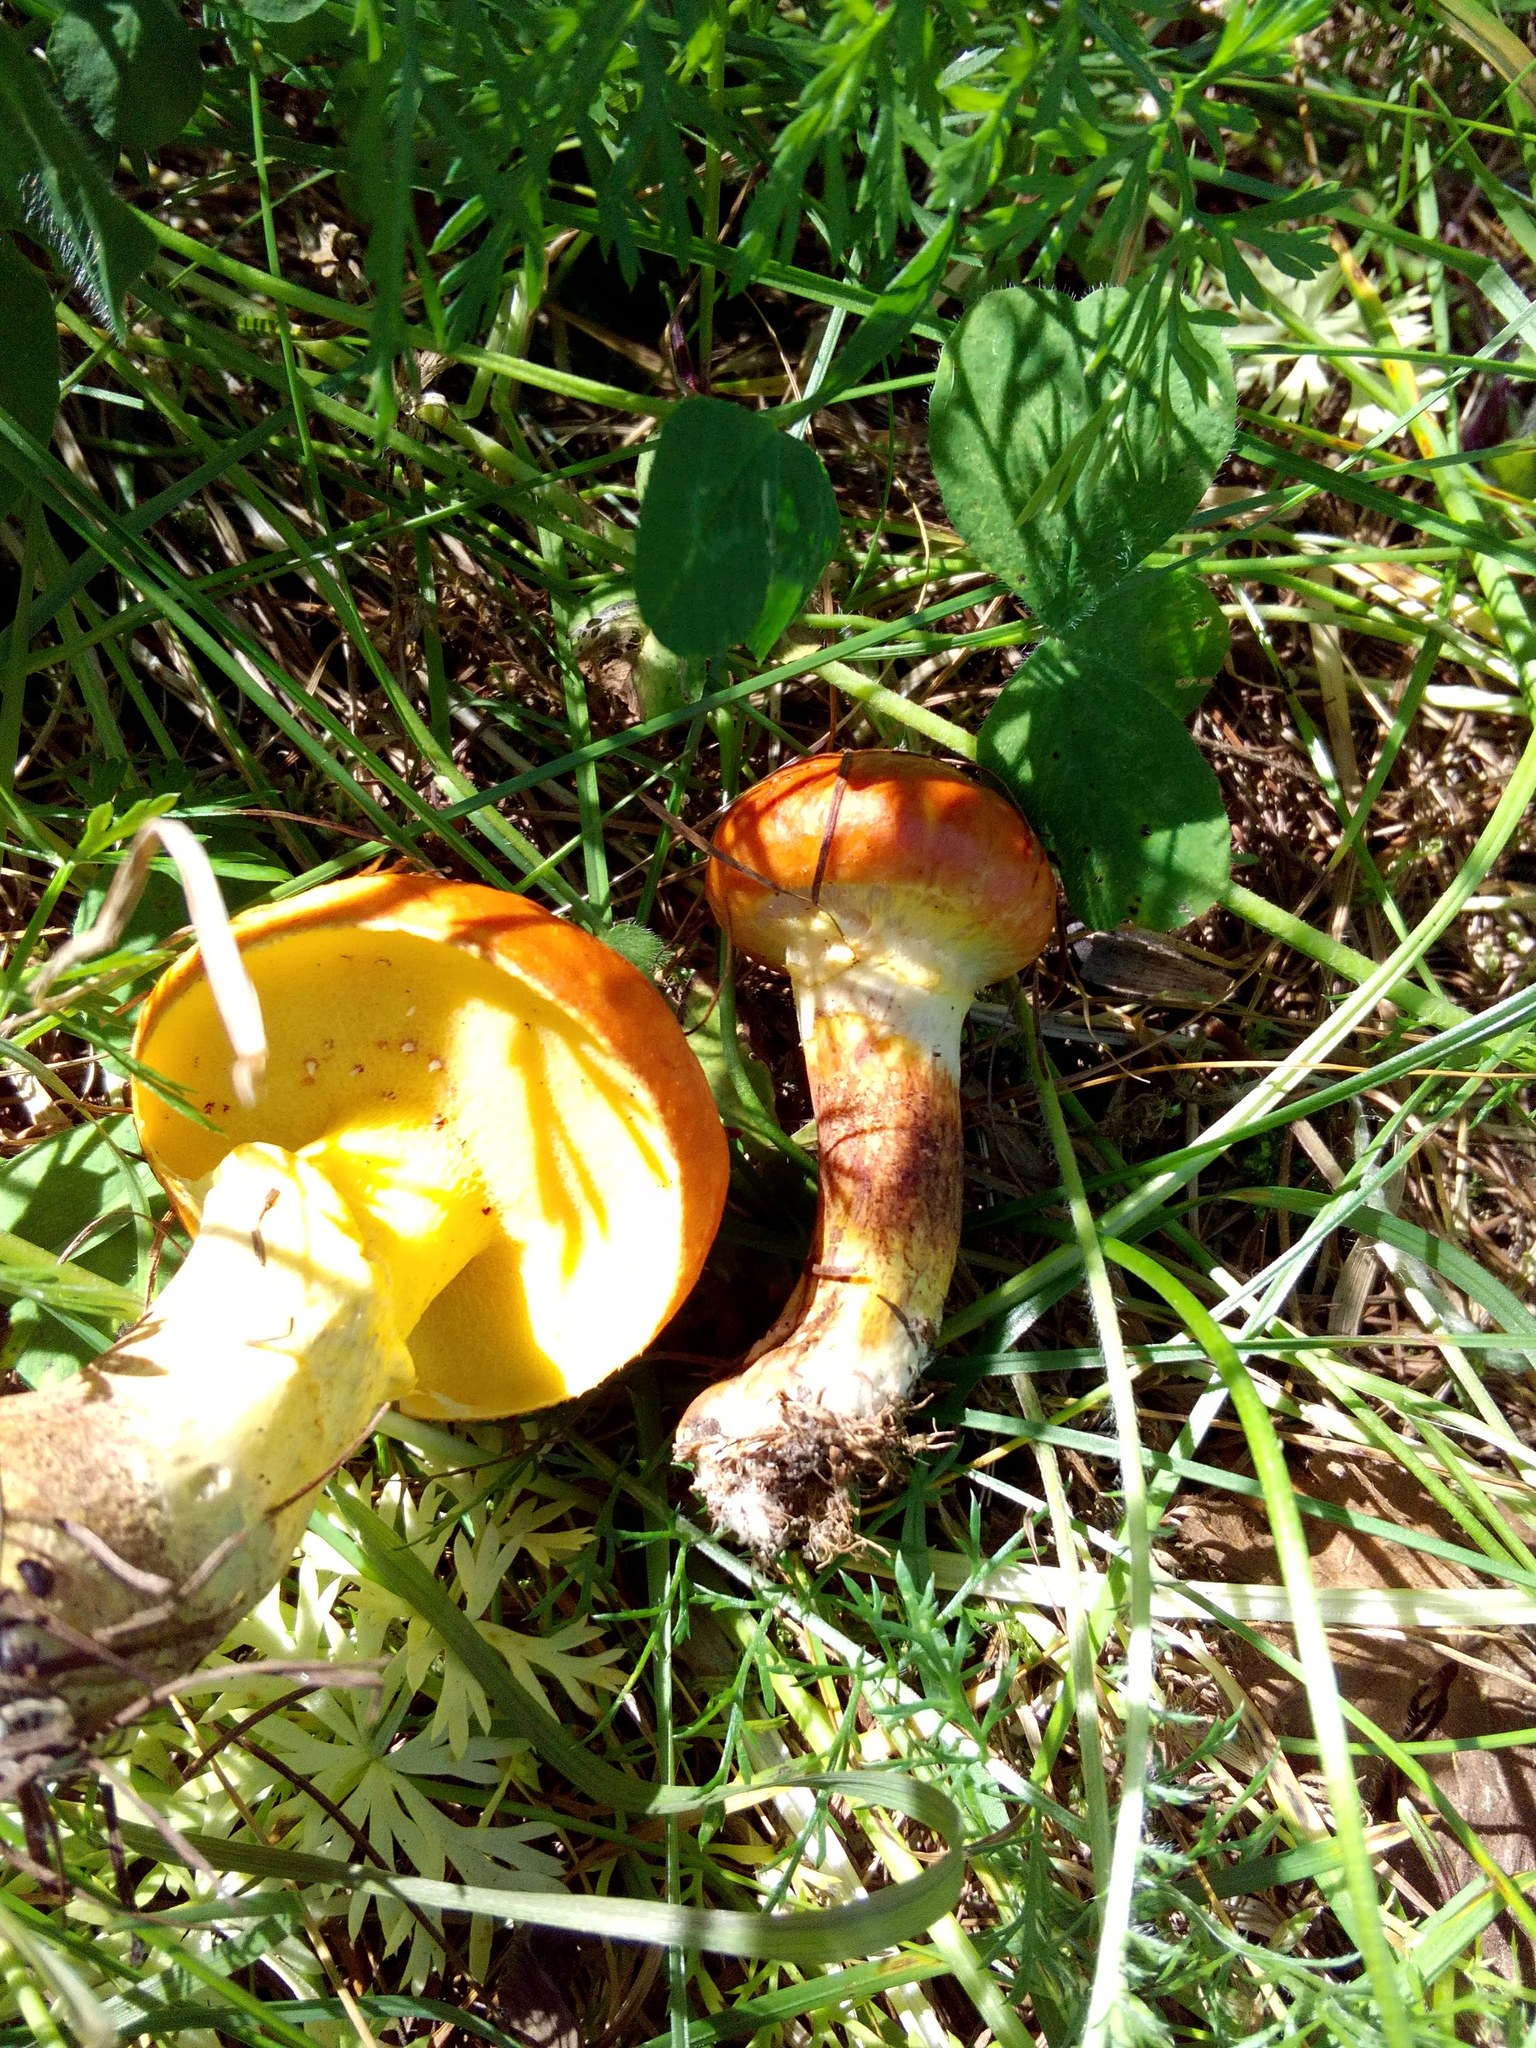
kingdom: Fungi
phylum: Basidiomycota
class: Agaricomycetes
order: Boletales
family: Suillaceae
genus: Suillus
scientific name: Suillus grevillei
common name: Larch bolete
